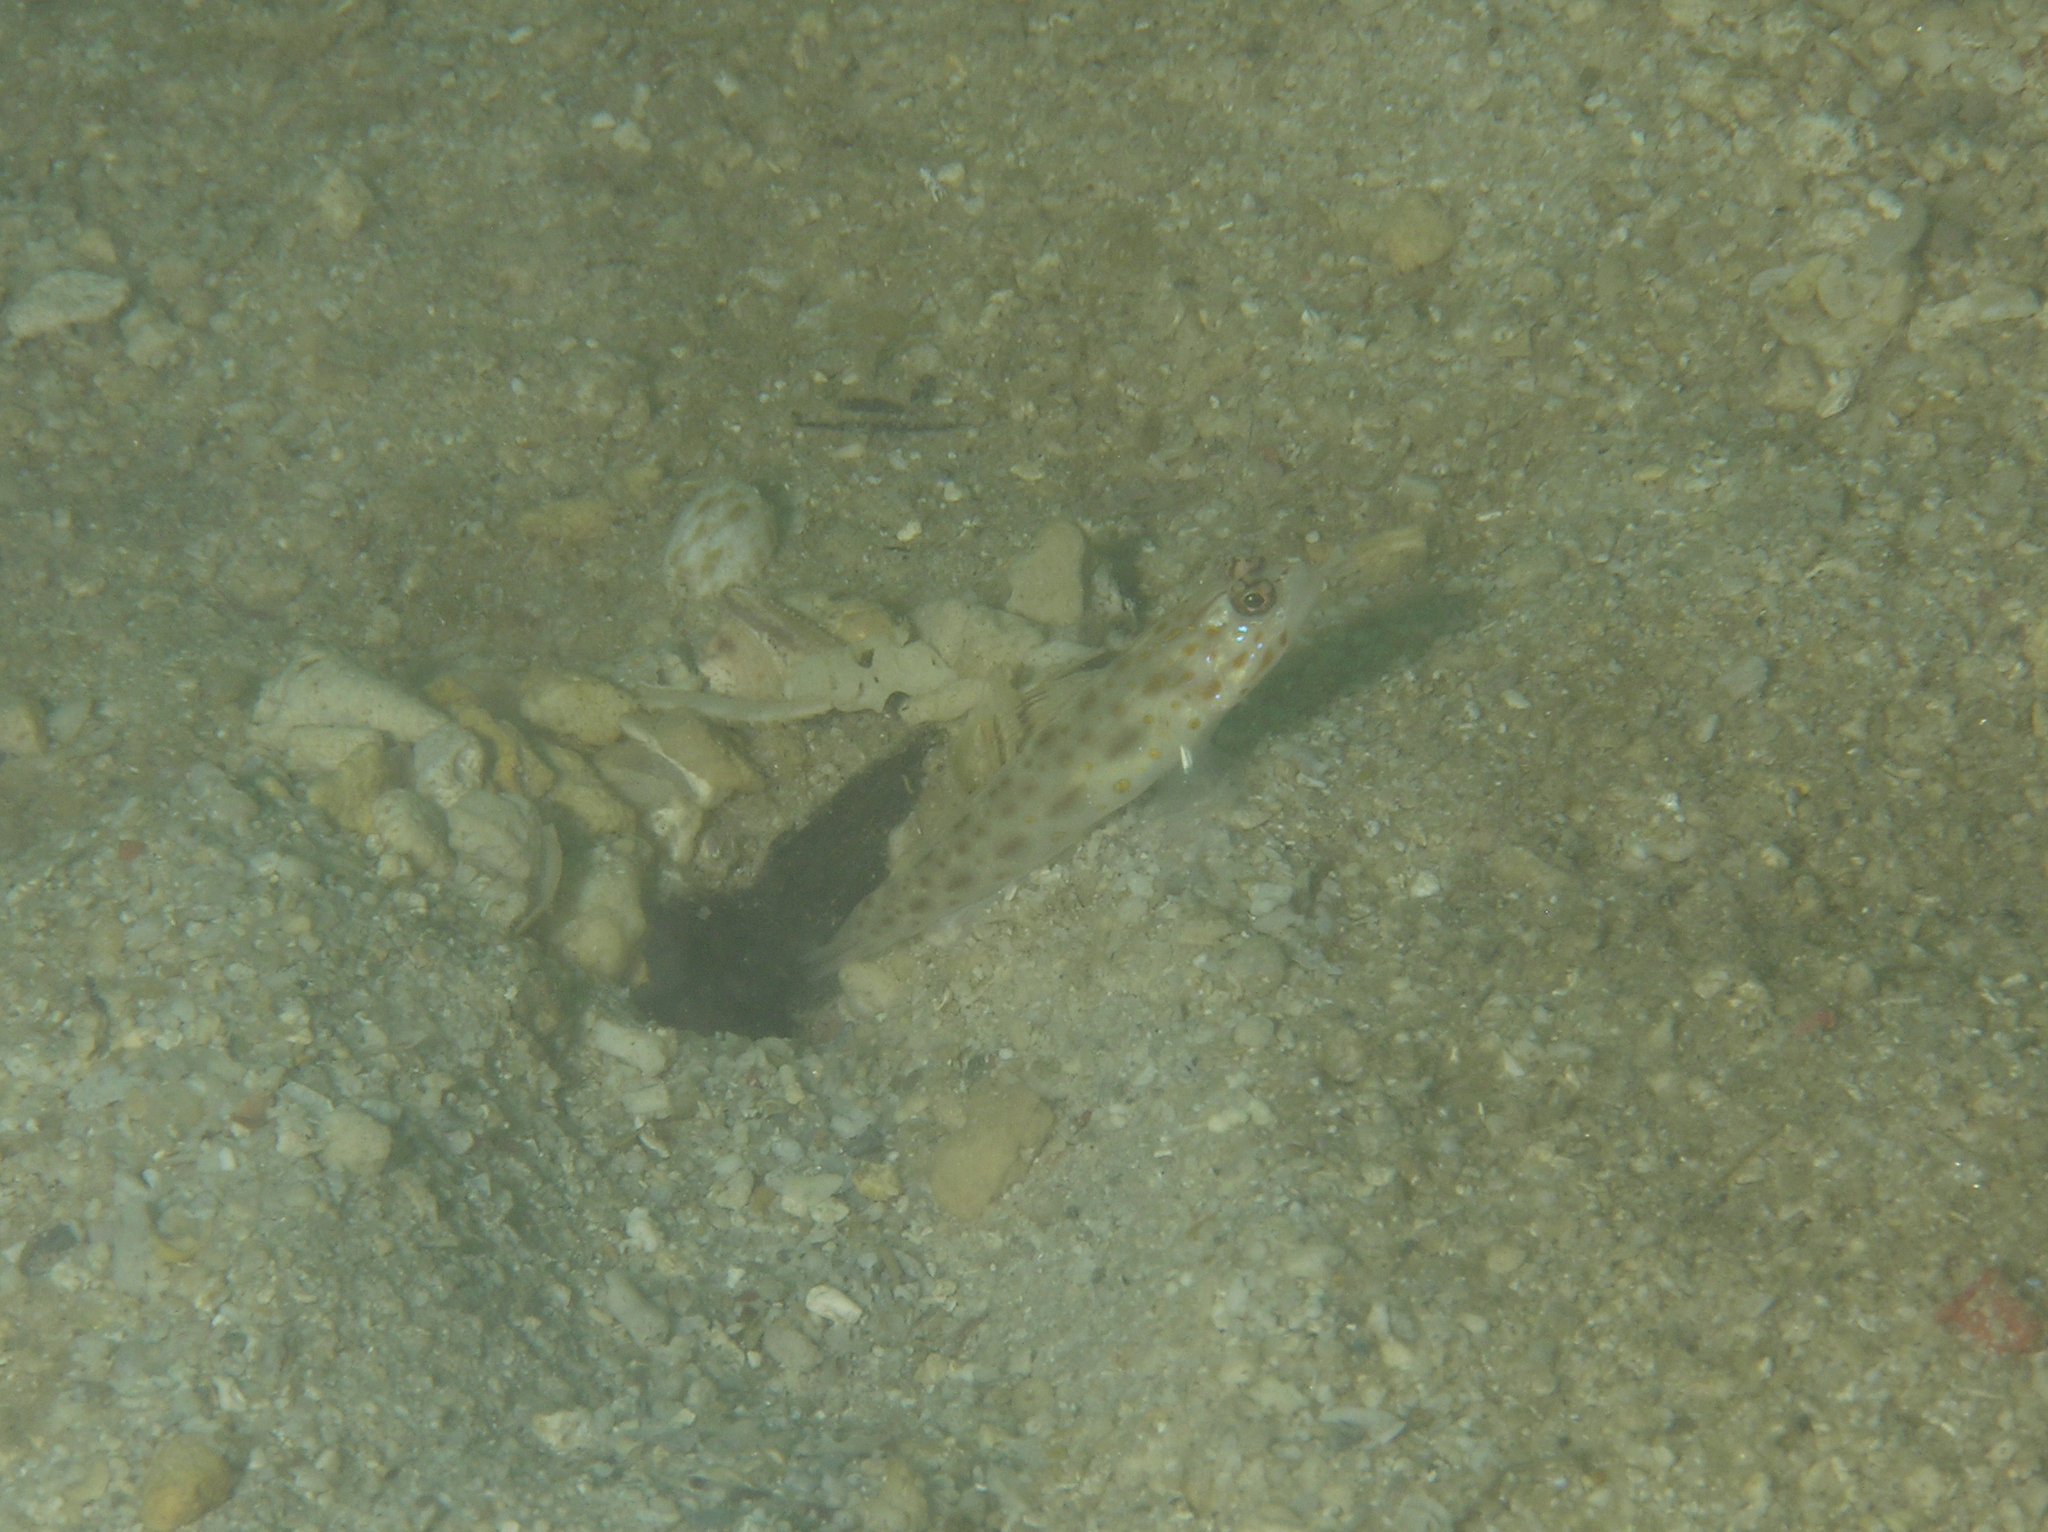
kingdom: Animalia
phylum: Chordata
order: Perciformes
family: Gobiidae
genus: Ctenogobiops
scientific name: Ctenogobiops pomastictus
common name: Spotfin shrimp goby
